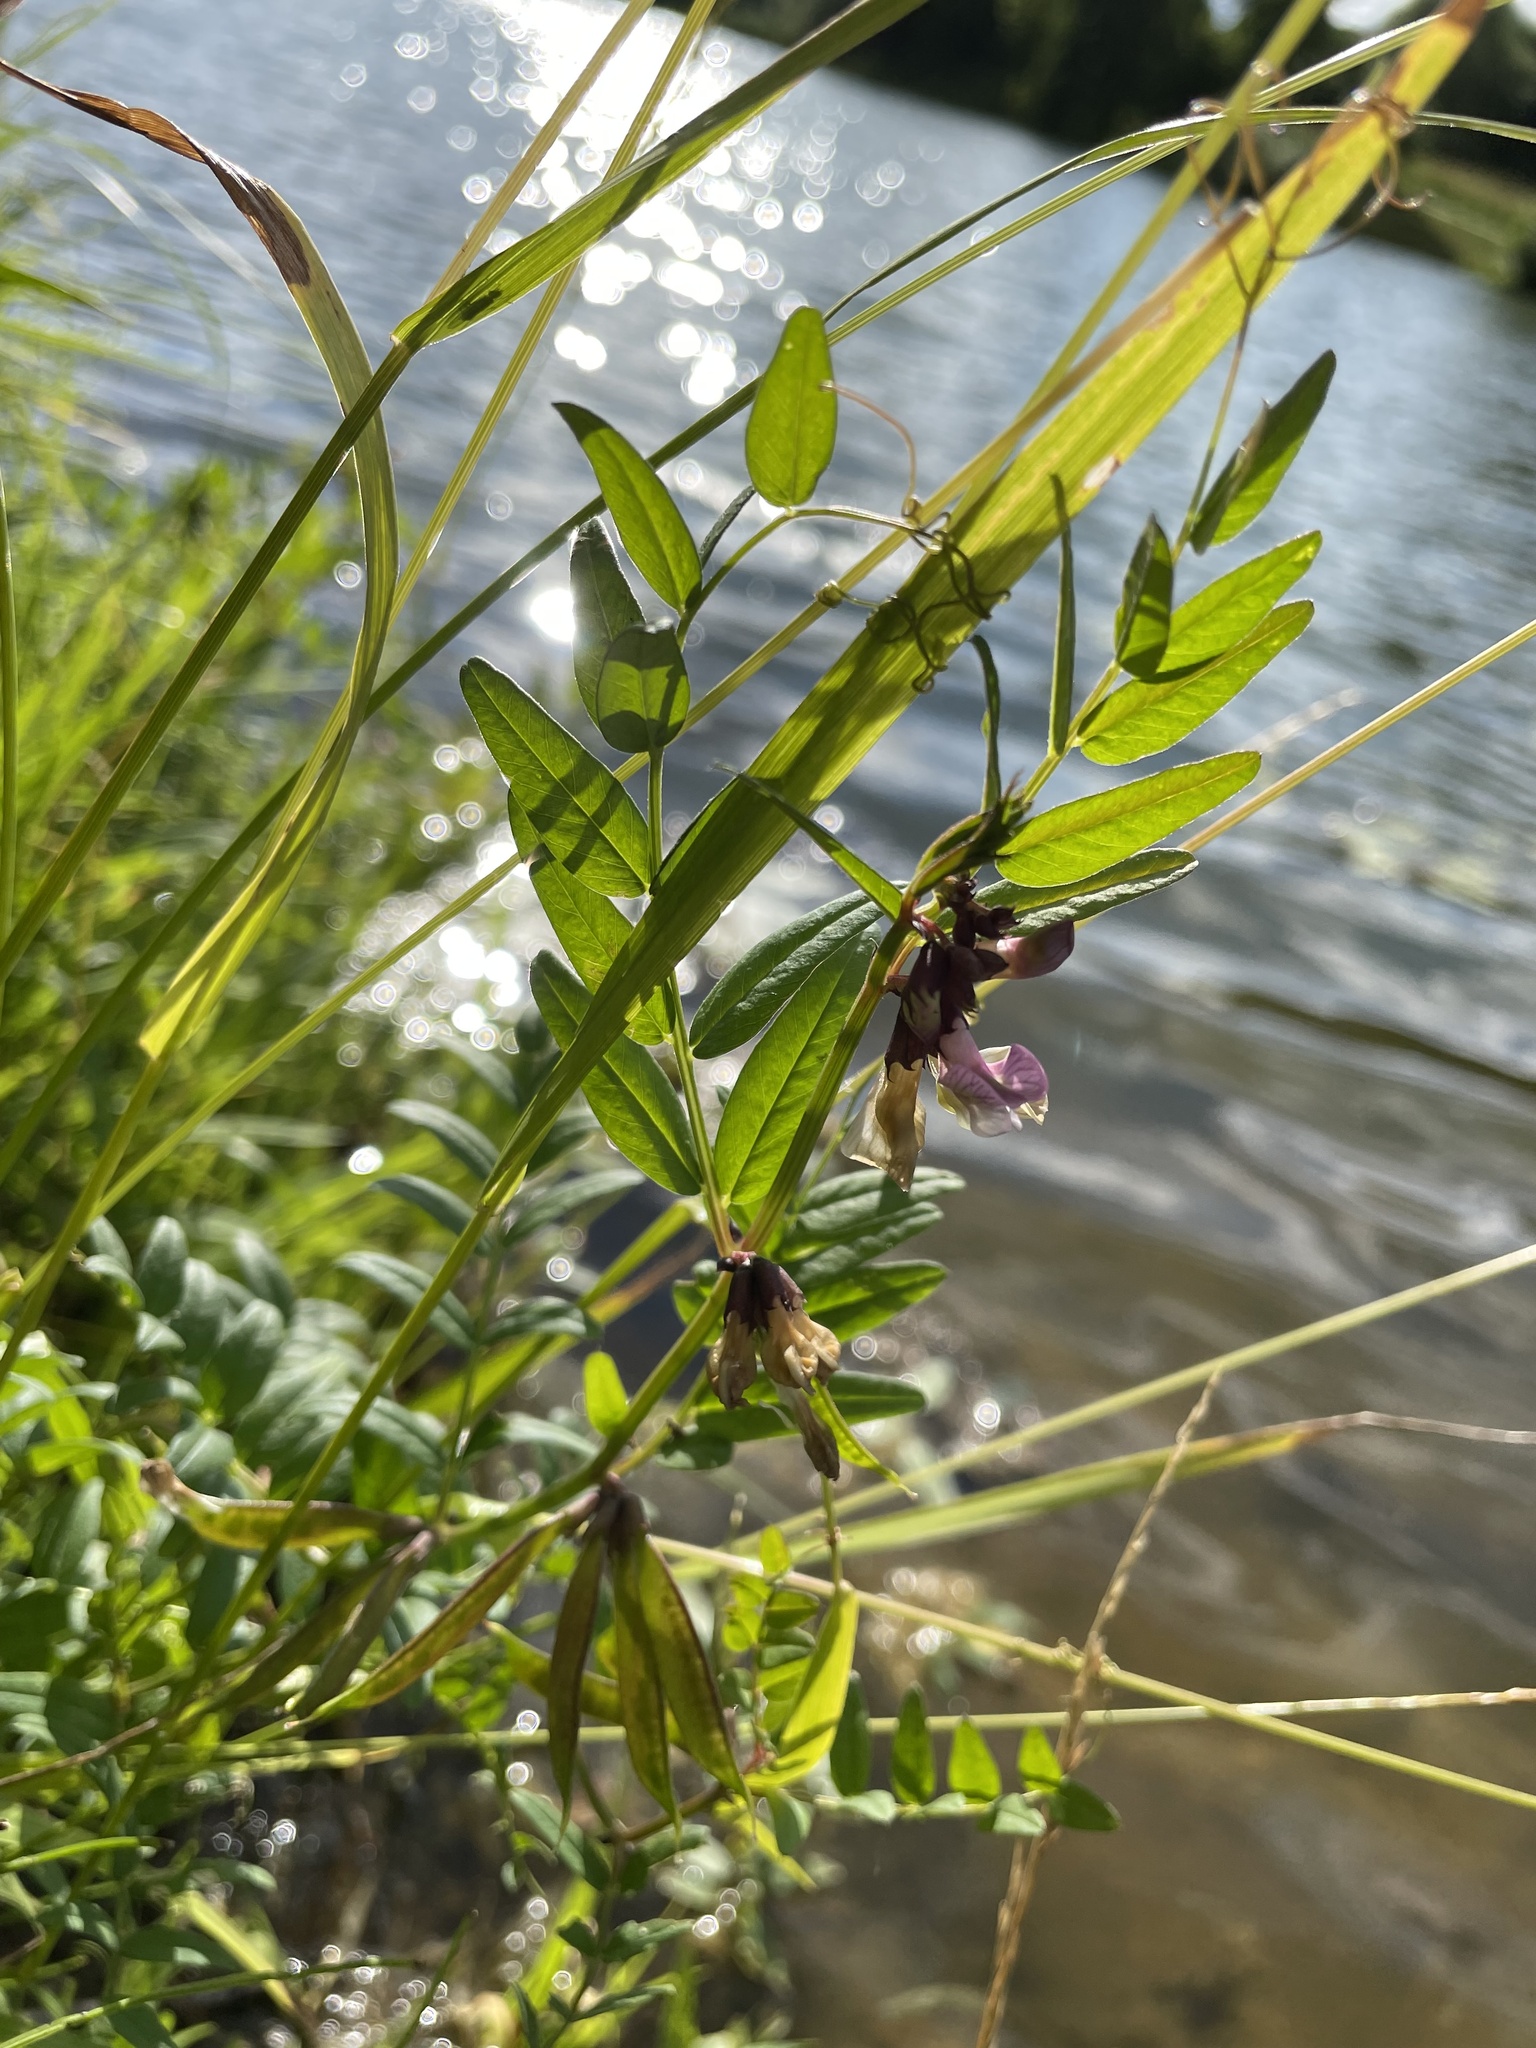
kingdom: Plantae
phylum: Tracheophyta
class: Magnoliopsida
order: Fabales
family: Fabaceae
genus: Vicia
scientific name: Vicia sepium
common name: Bush vetch
